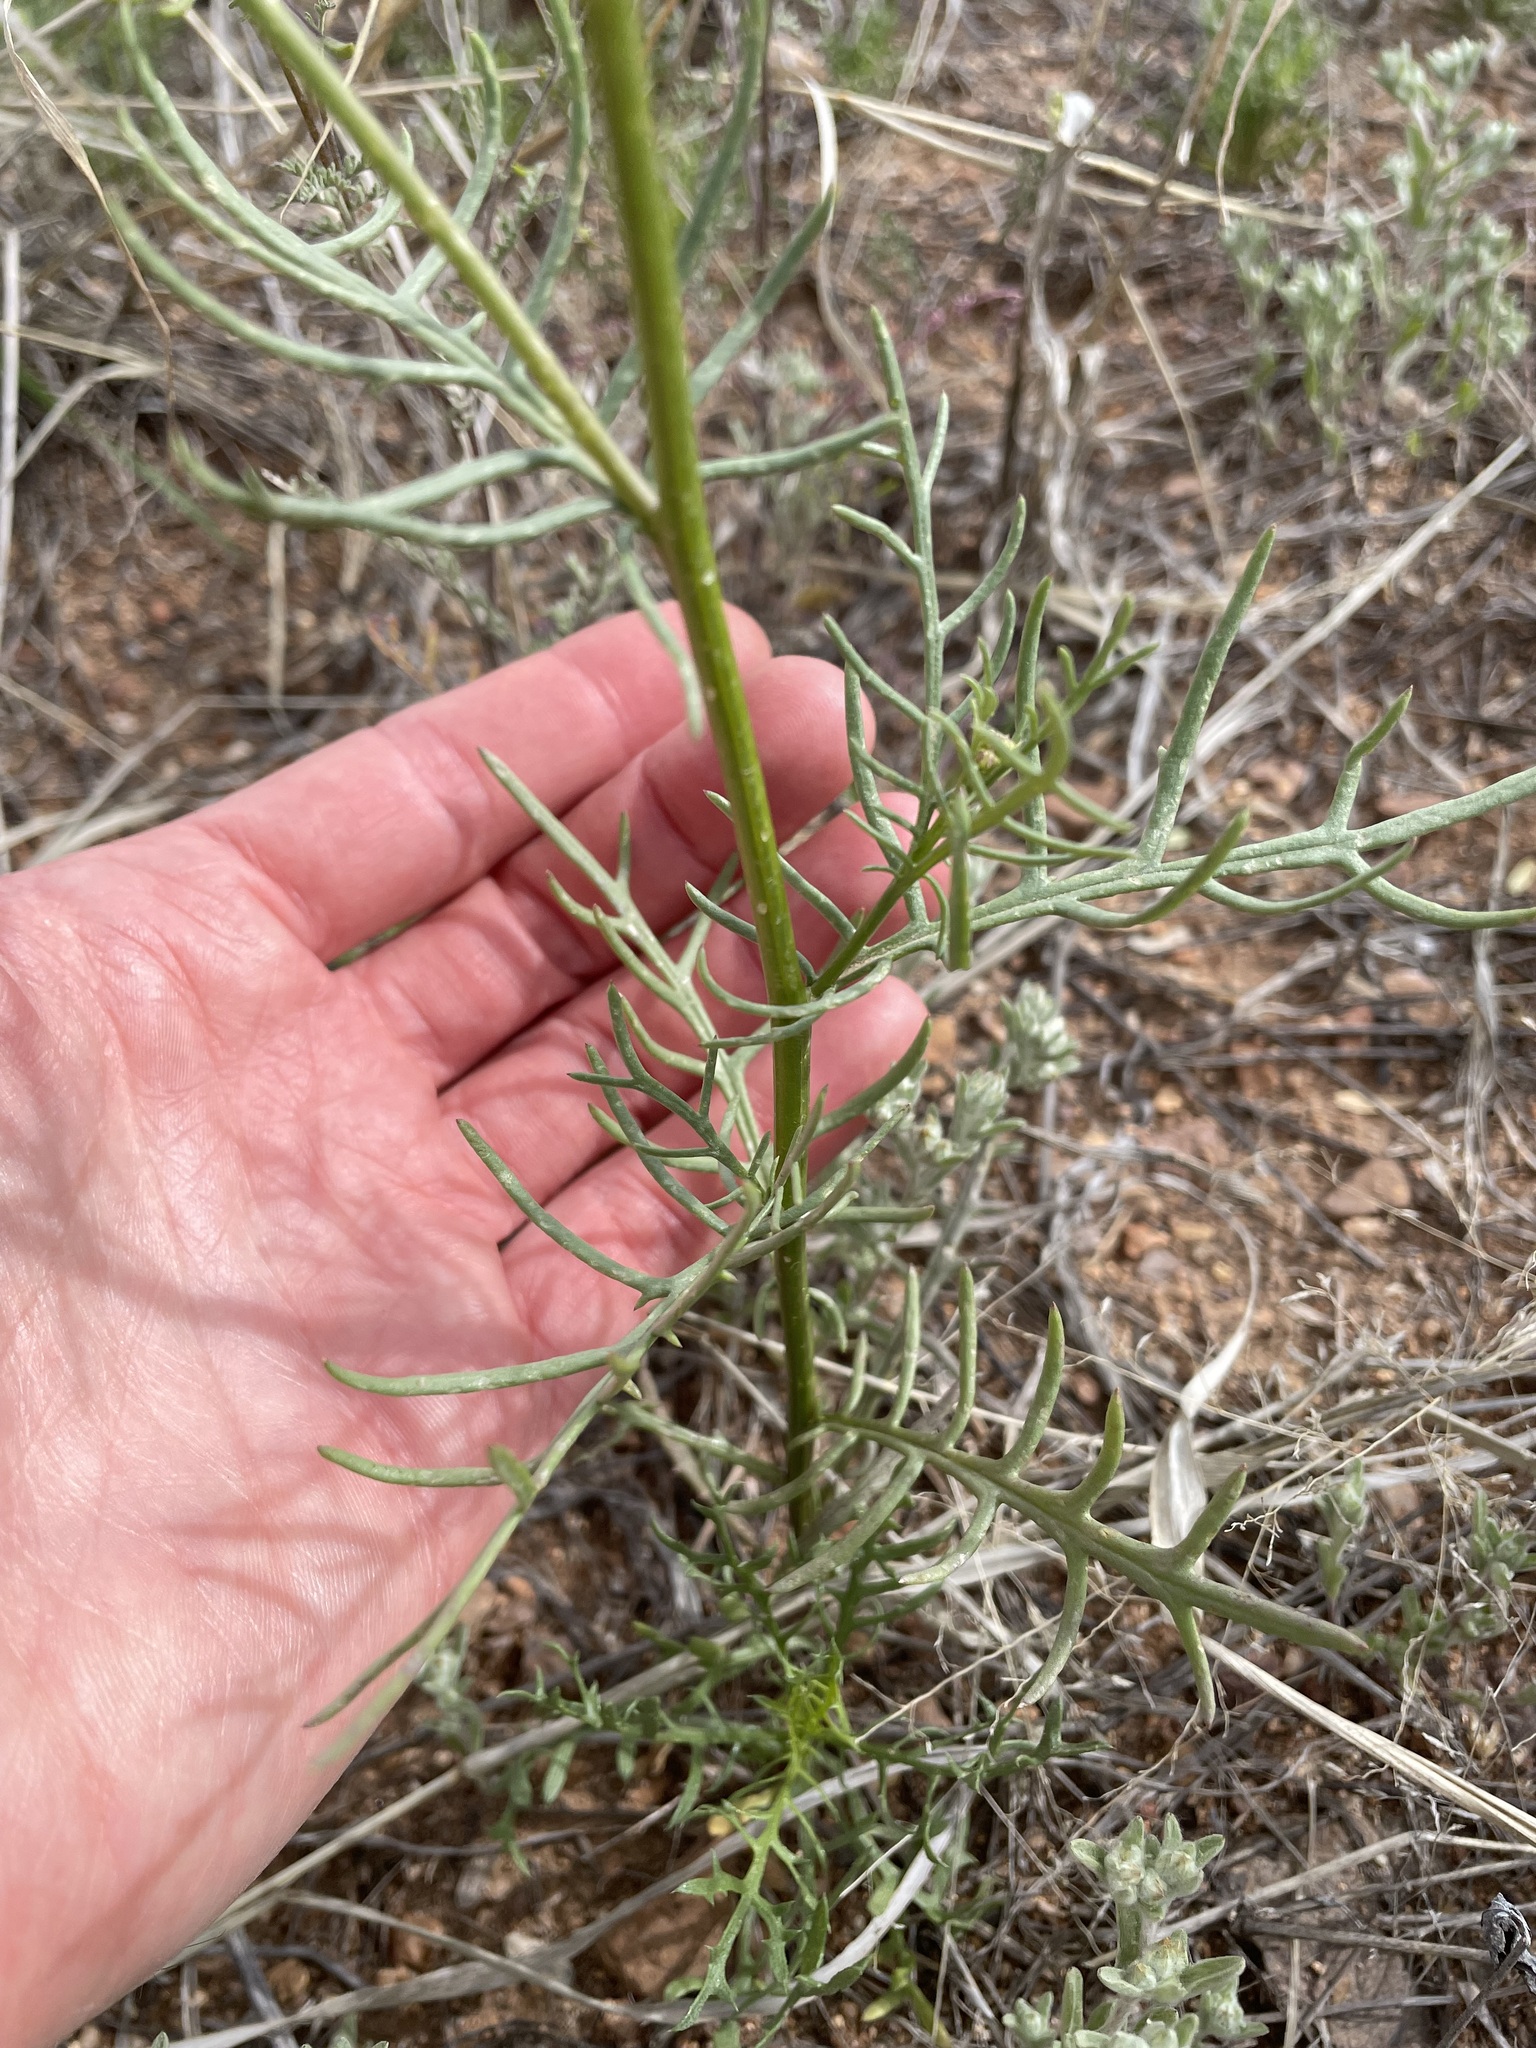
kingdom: Plantae
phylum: Tracheophyta
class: Magnoliopsida
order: Asterales
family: Asteraceae
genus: Senecio
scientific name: Senecio flaccidus
